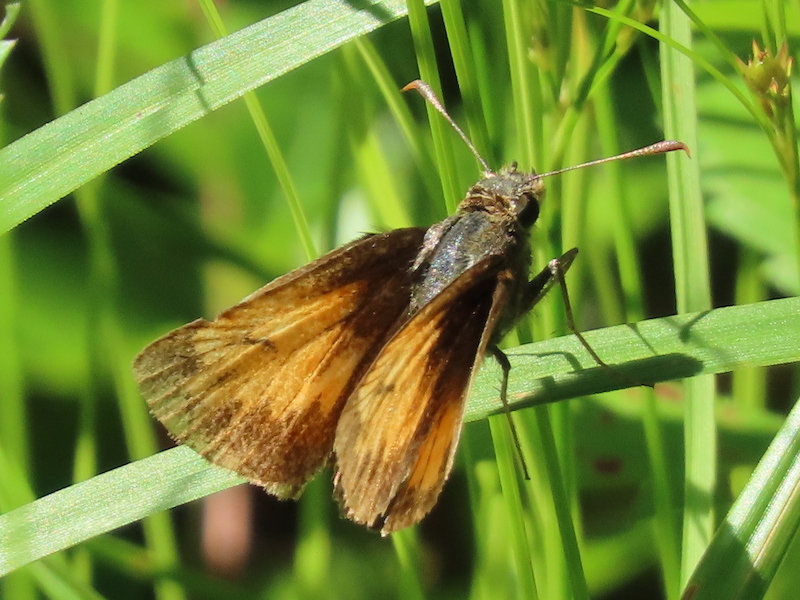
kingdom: Animalia
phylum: Arthropoda
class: Insecta
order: Lepidoptera
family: Hesperiidae
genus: Lon
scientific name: Lon hobomok
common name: Hobomok skipper
